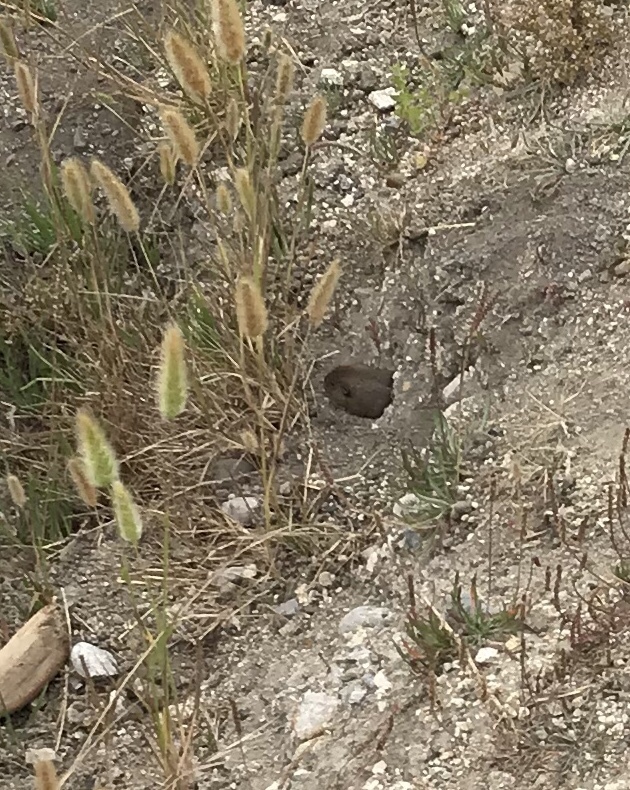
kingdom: Animalia
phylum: Chordata
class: Mammalia
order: Rodentia
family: Geomyidae
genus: Thomomys
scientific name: Thomomys bottae
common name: Botta's pocket gopher
